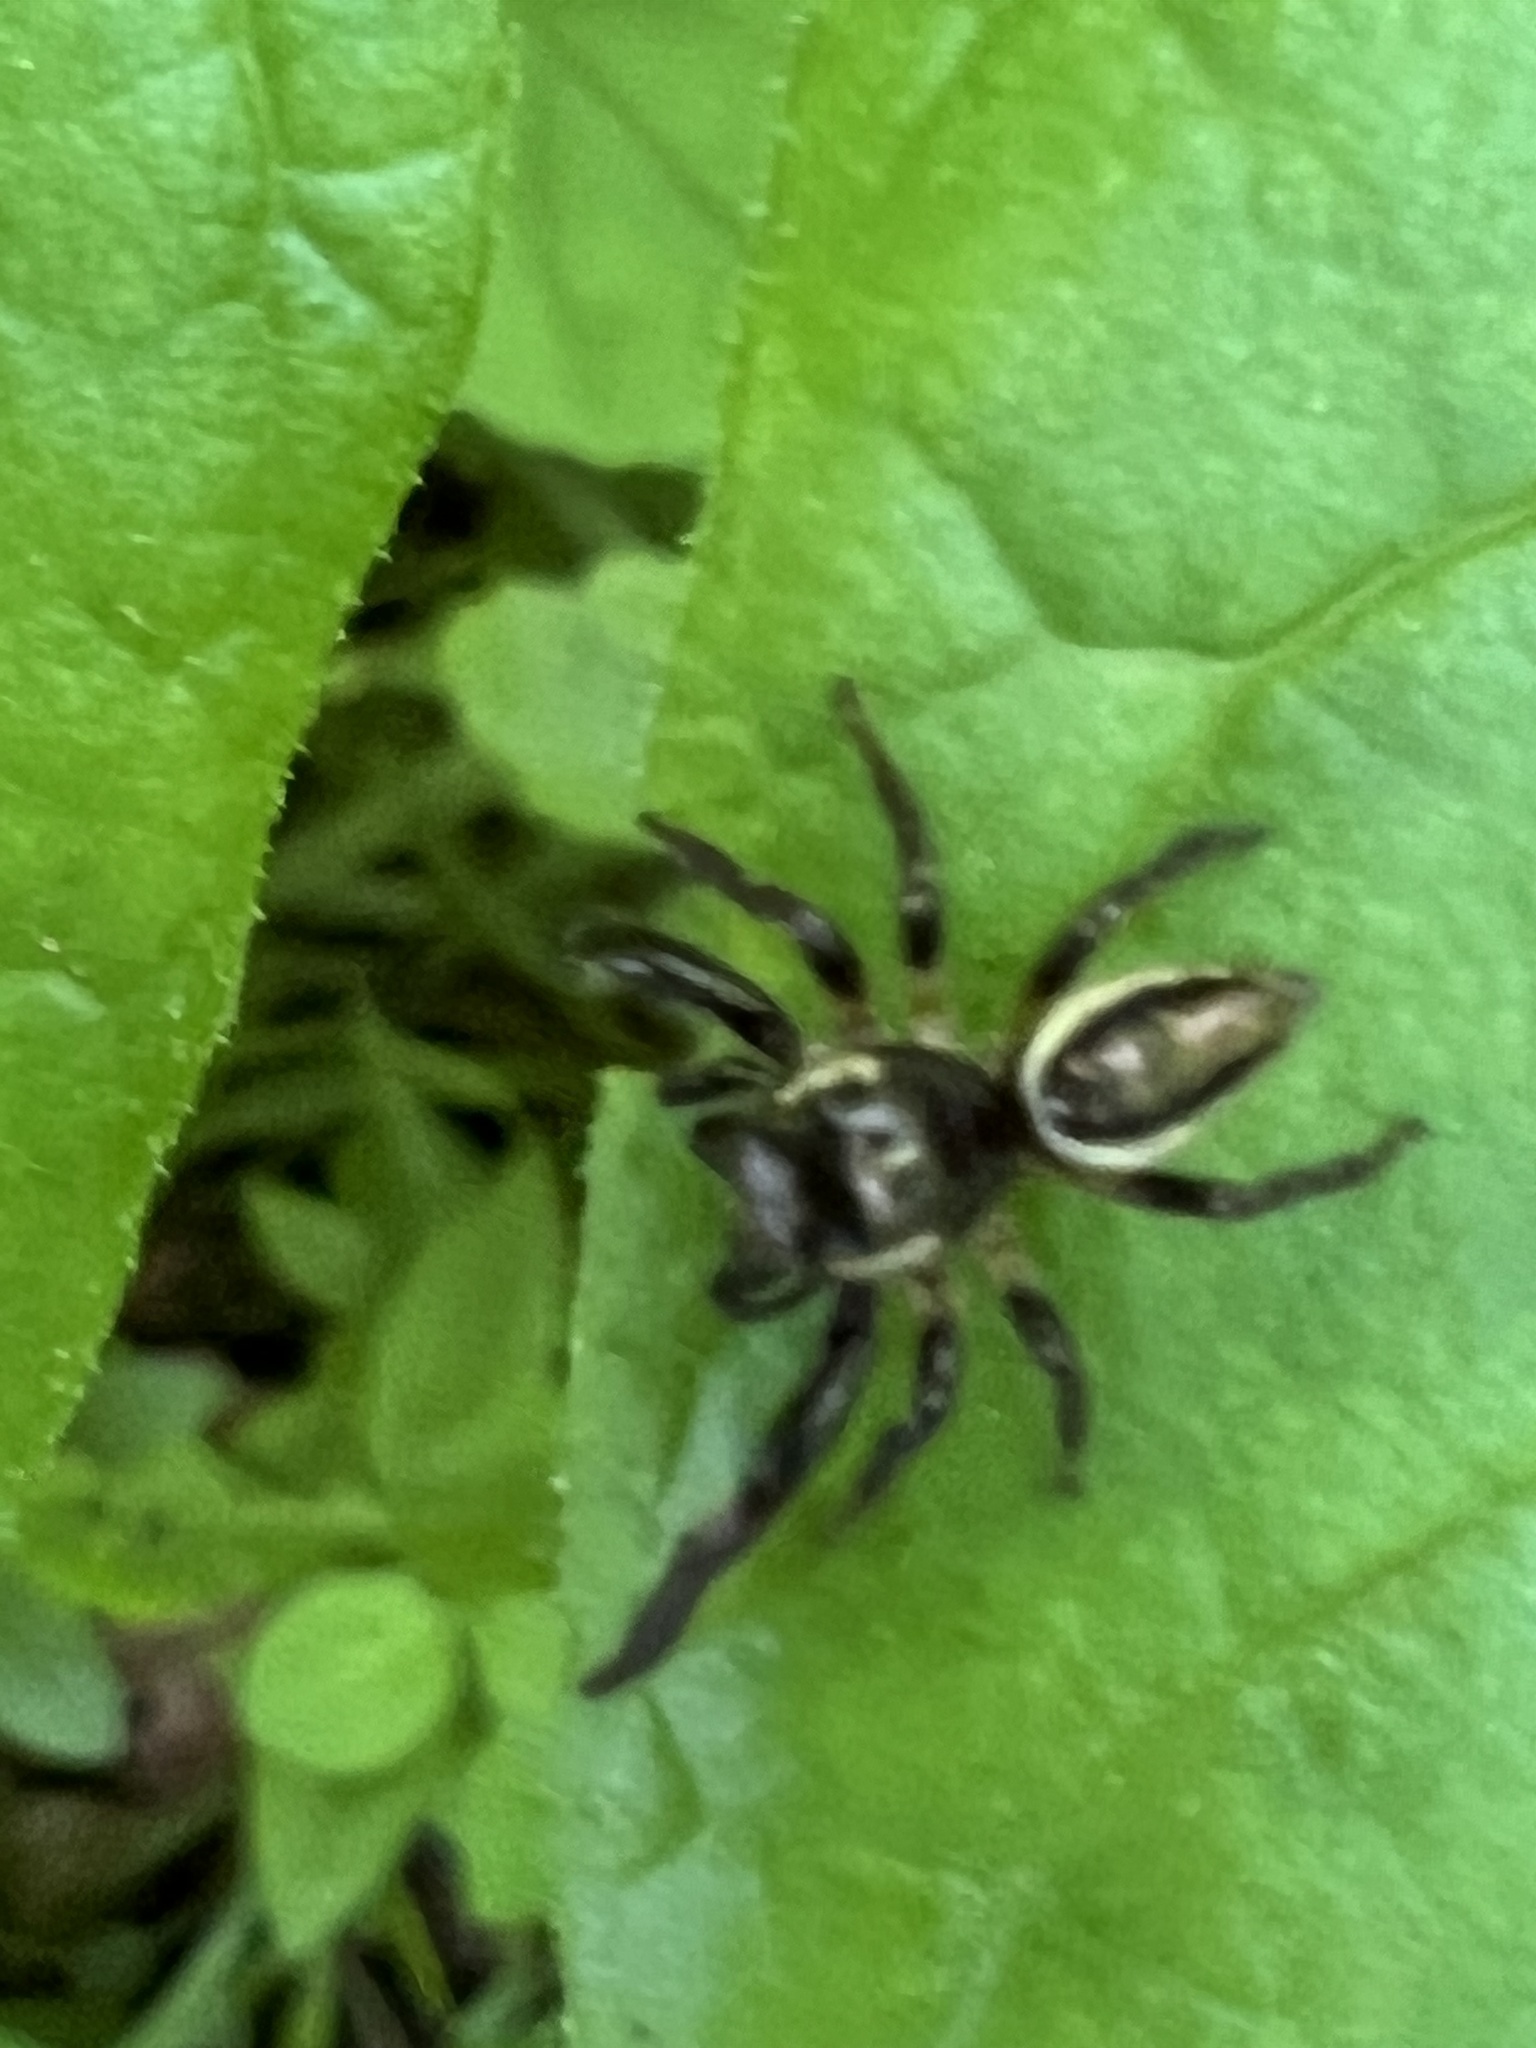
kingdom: Animalia
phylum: Arthropoda
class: Arachnida
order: Araneae
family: Salticidae
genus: Eris
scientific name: Eris militaris
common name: Bronze jumper
